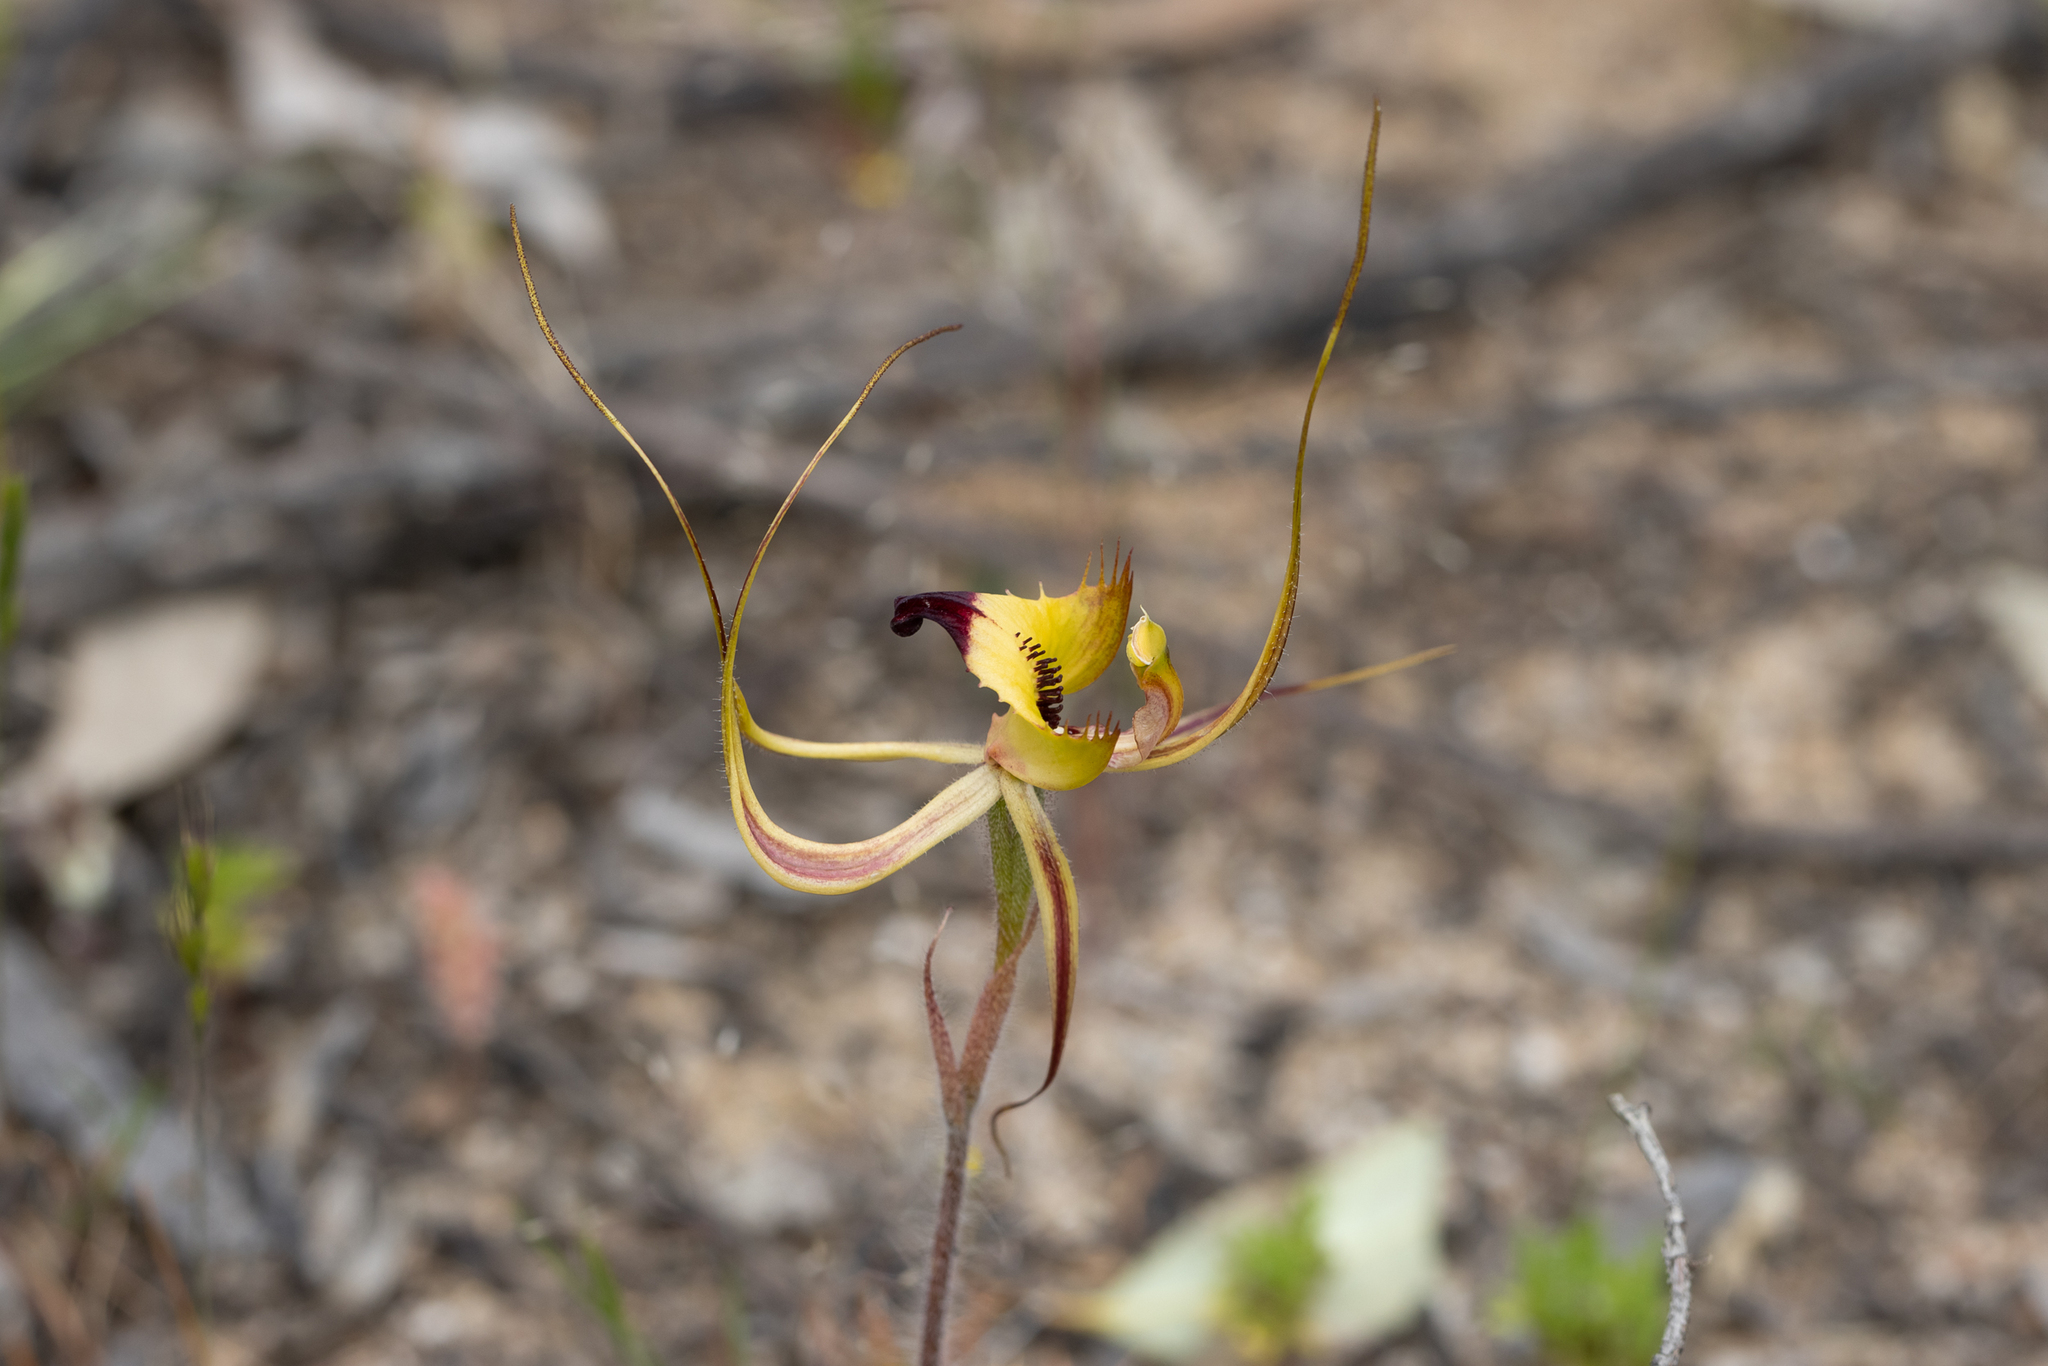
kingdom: Plantae
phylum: Tracheophyta
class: Liliopsida
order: Asparagales
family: Orchidaceae
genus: Caladenia
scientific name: Caladenia falcata
